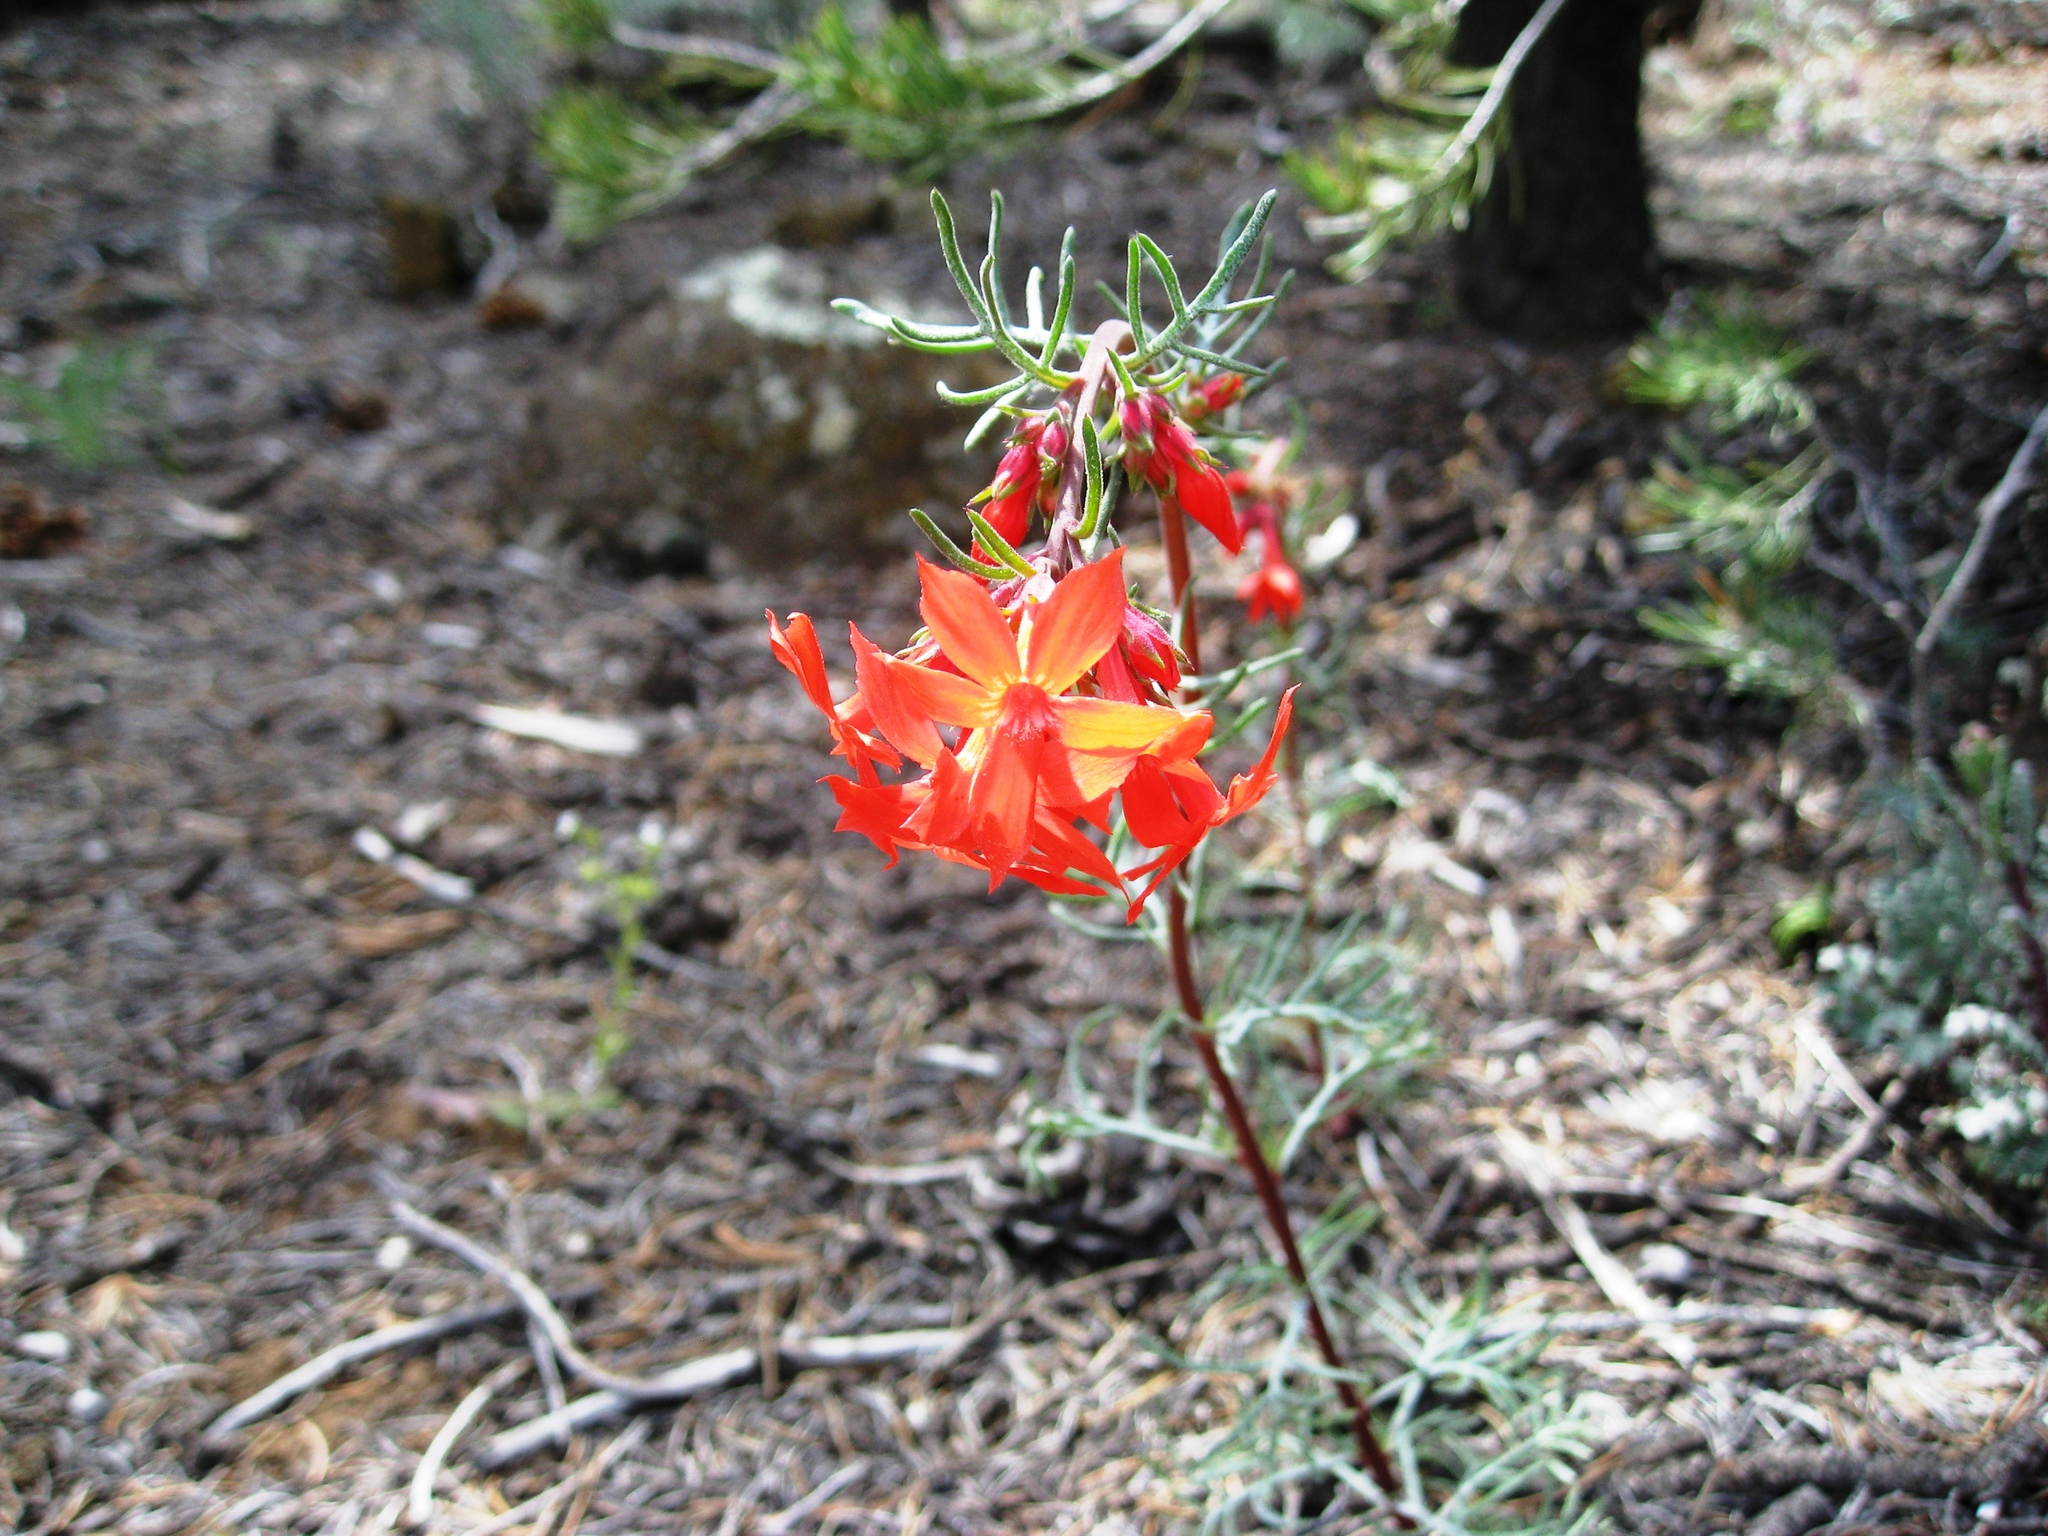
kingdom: Plantae
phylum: Tracheophyta
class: Magnoliopsida
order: Ericales
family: Polemoniaceae
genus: Ipomopsis
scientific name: Ipomopsis arizonica
